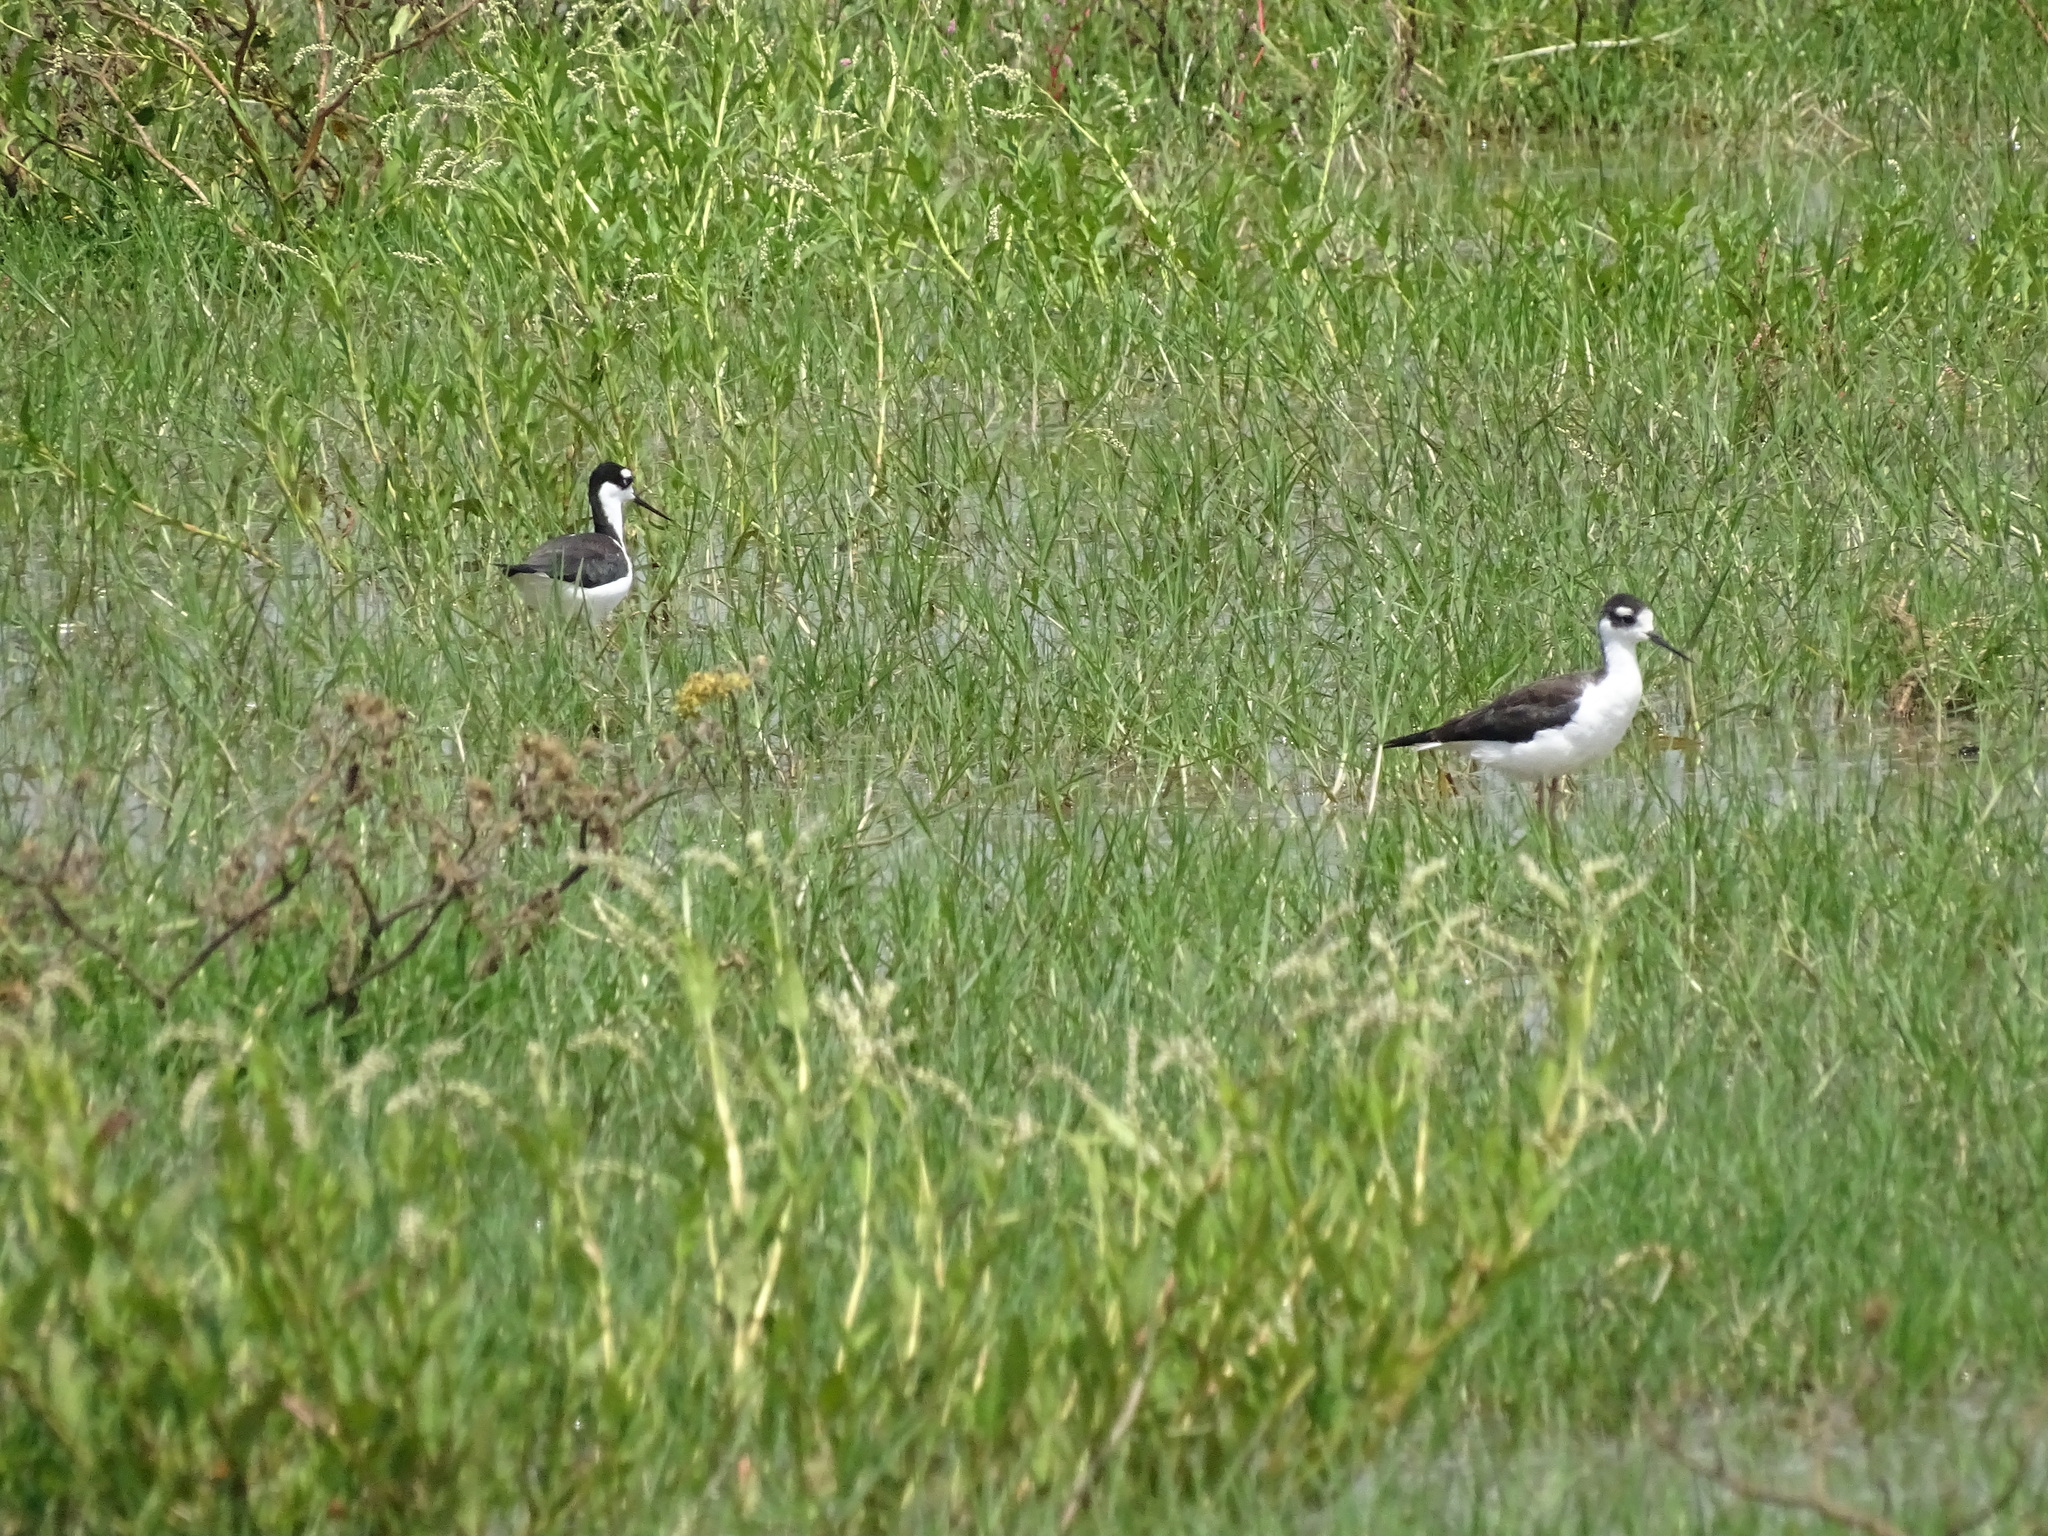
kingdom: Animalia
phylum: Chordata
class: Aves
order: Charadriiformes
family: Recurvirostridae
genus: Himantopus
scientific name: Himantopus mexicanus
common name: Black-necked stilt
